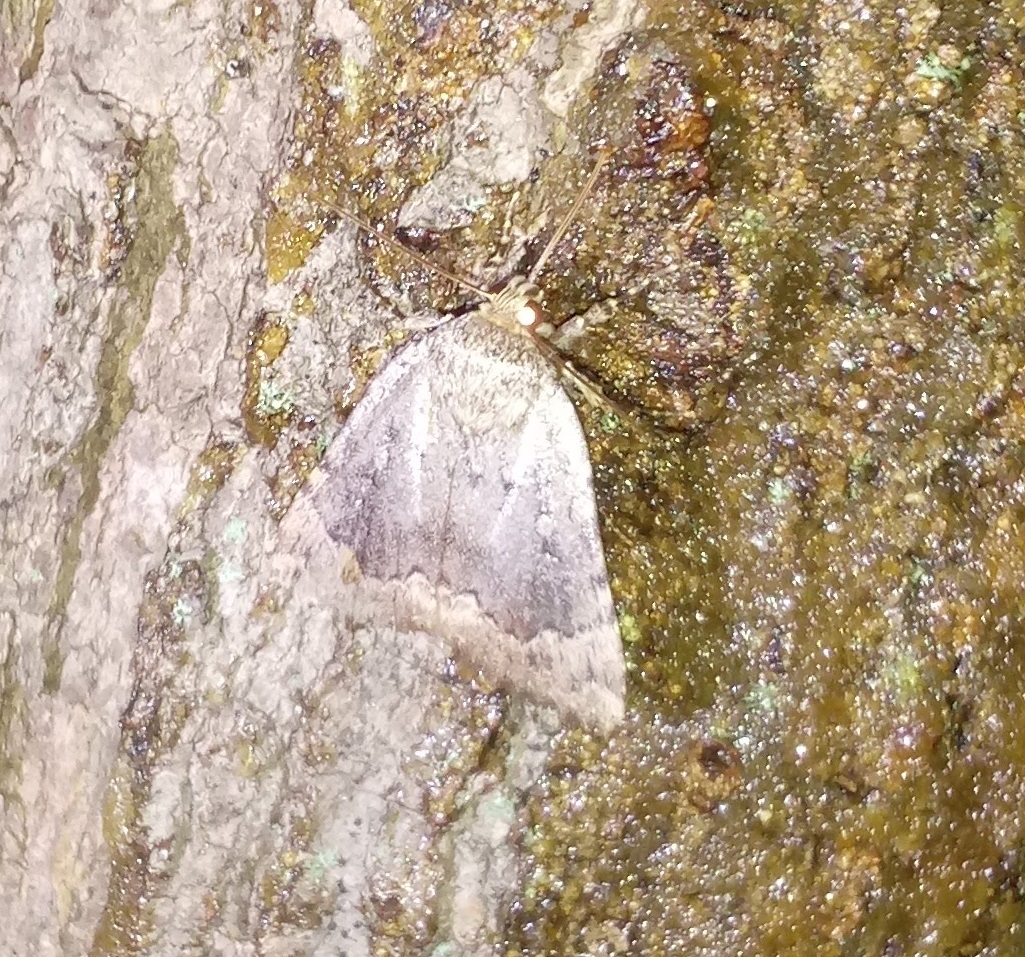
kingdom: Animalia
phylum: Arthropoda
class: Insecta
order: Lepidoptera
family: Noctuidae
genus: Amphipyra
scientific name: Amphipyra pyramidoides
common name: American copper underwing
